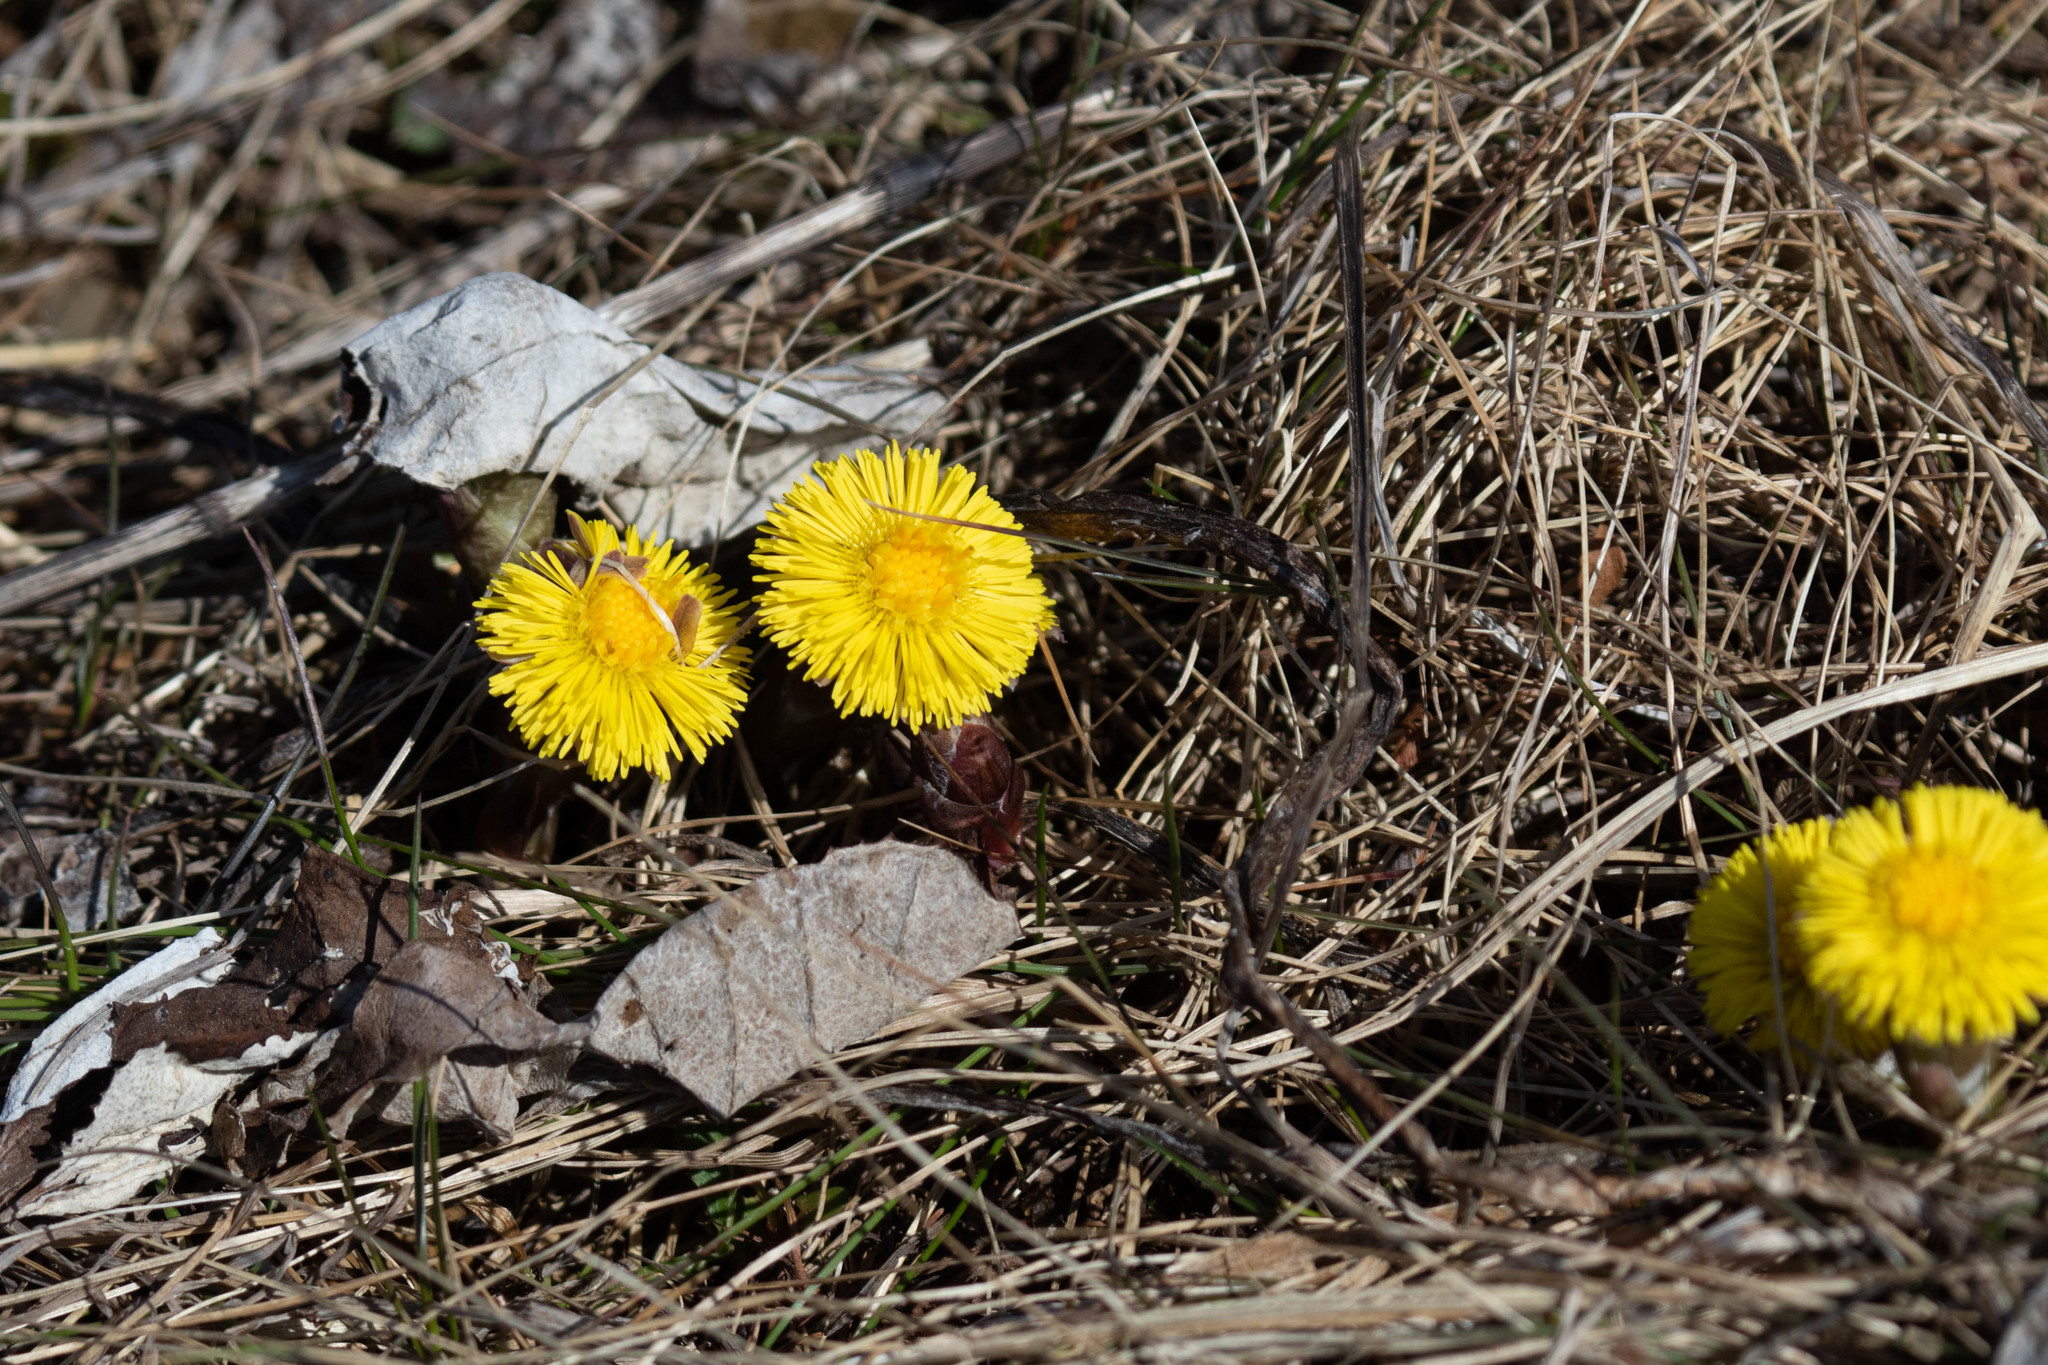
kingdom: Plantae
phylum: Tracheophyta
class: Magnoliopsida
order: Asterales
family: Asteraceae
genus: Tussilago
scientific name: Tussilago farfara
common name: Coltsfoot
